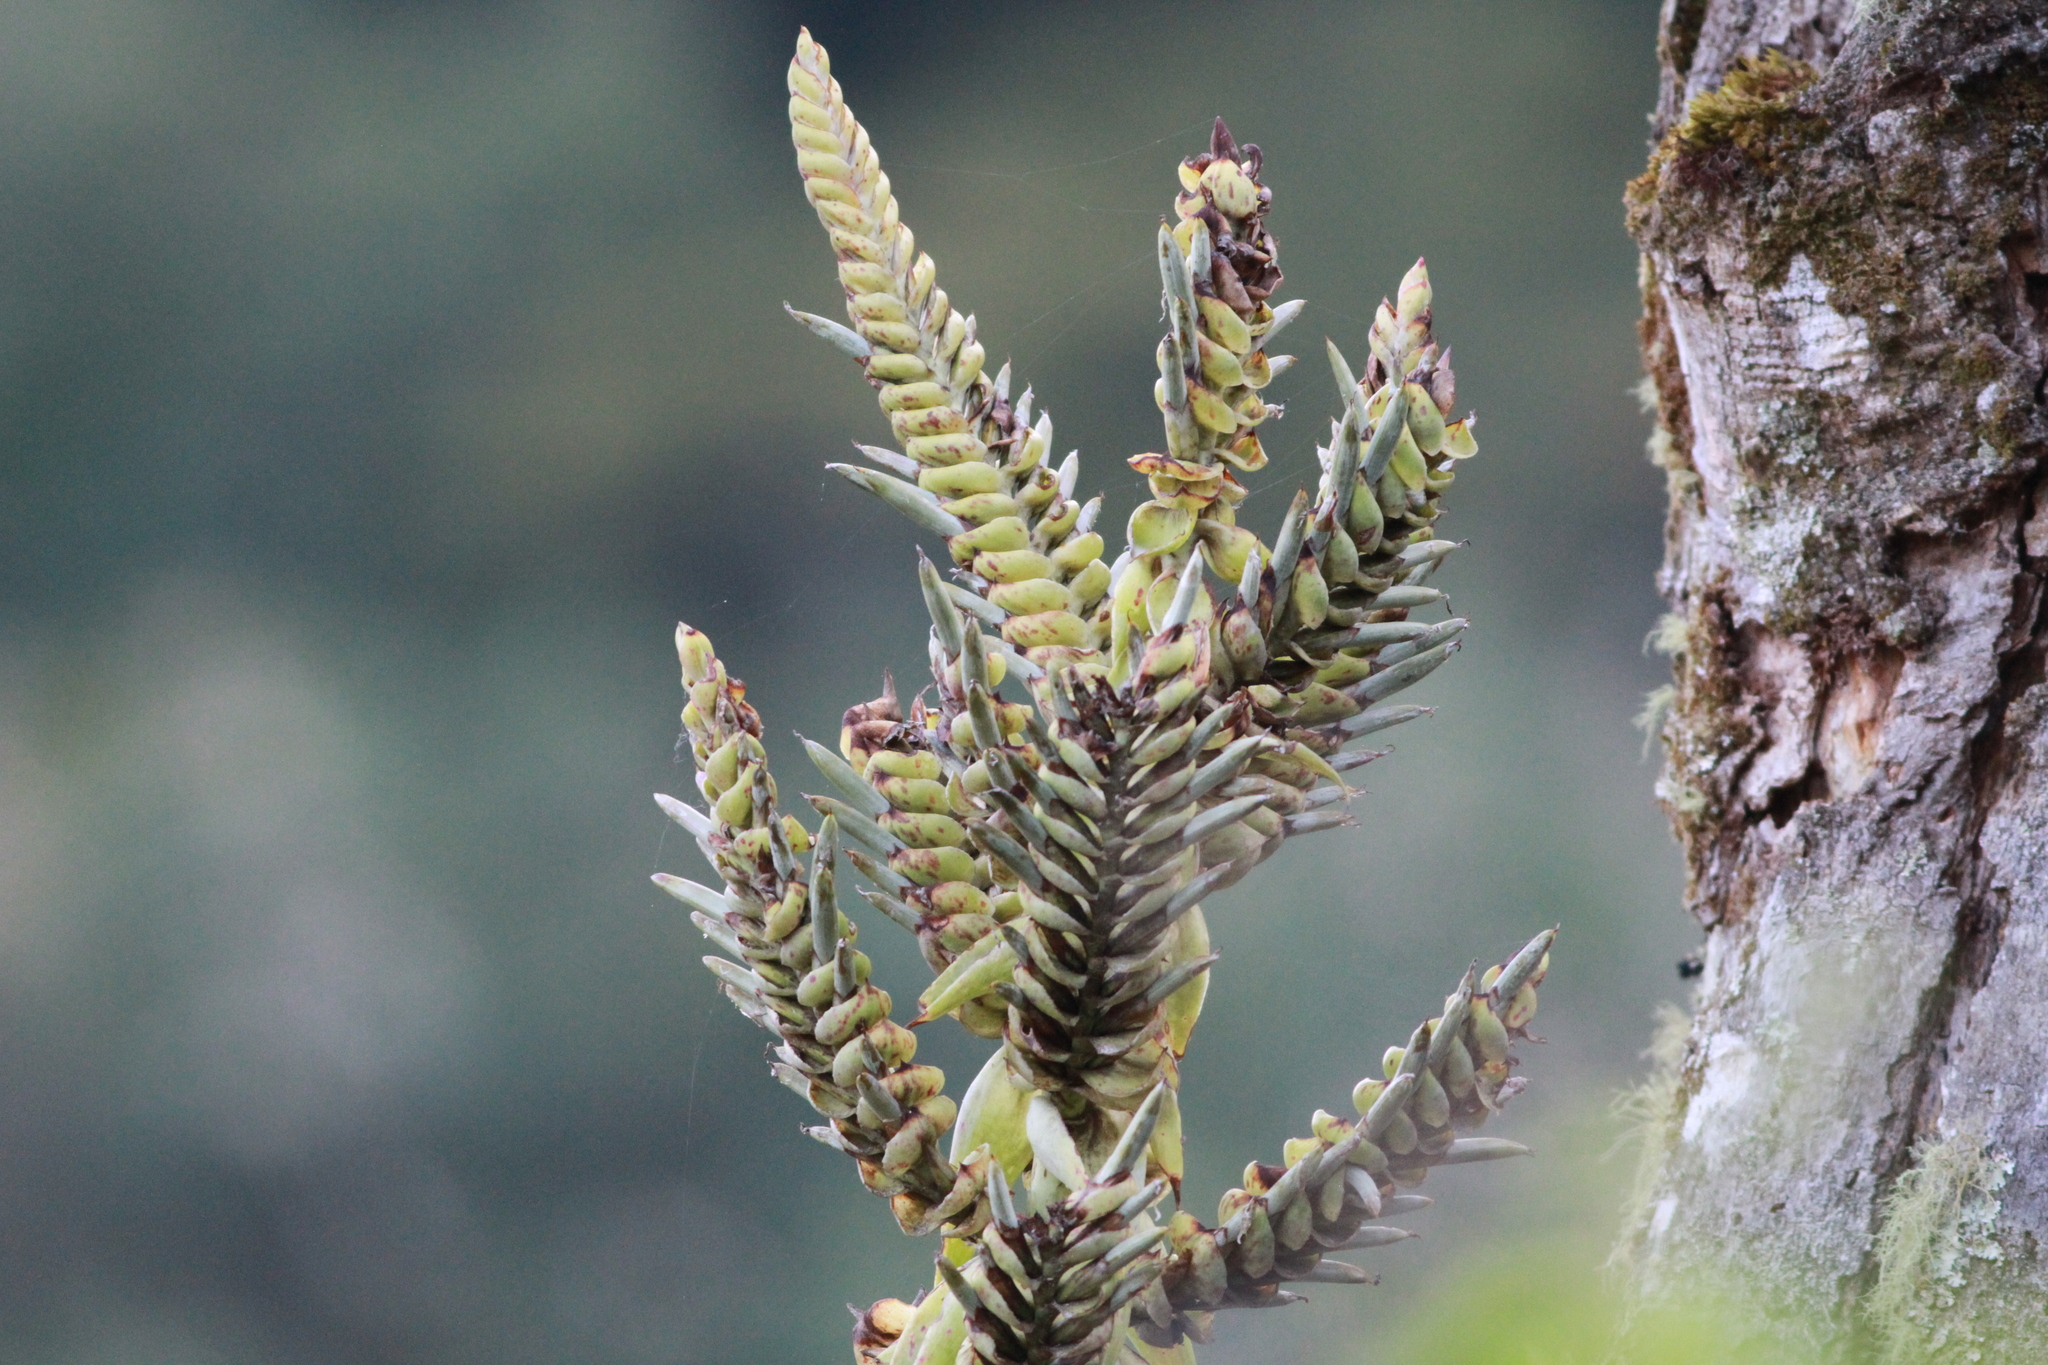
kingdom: Plantae
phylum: Tracheophyta
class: Liliopsida
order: Poales
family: Bromeliaceae
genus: Tillandsia
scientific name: Tillandsia kalmbacheri
